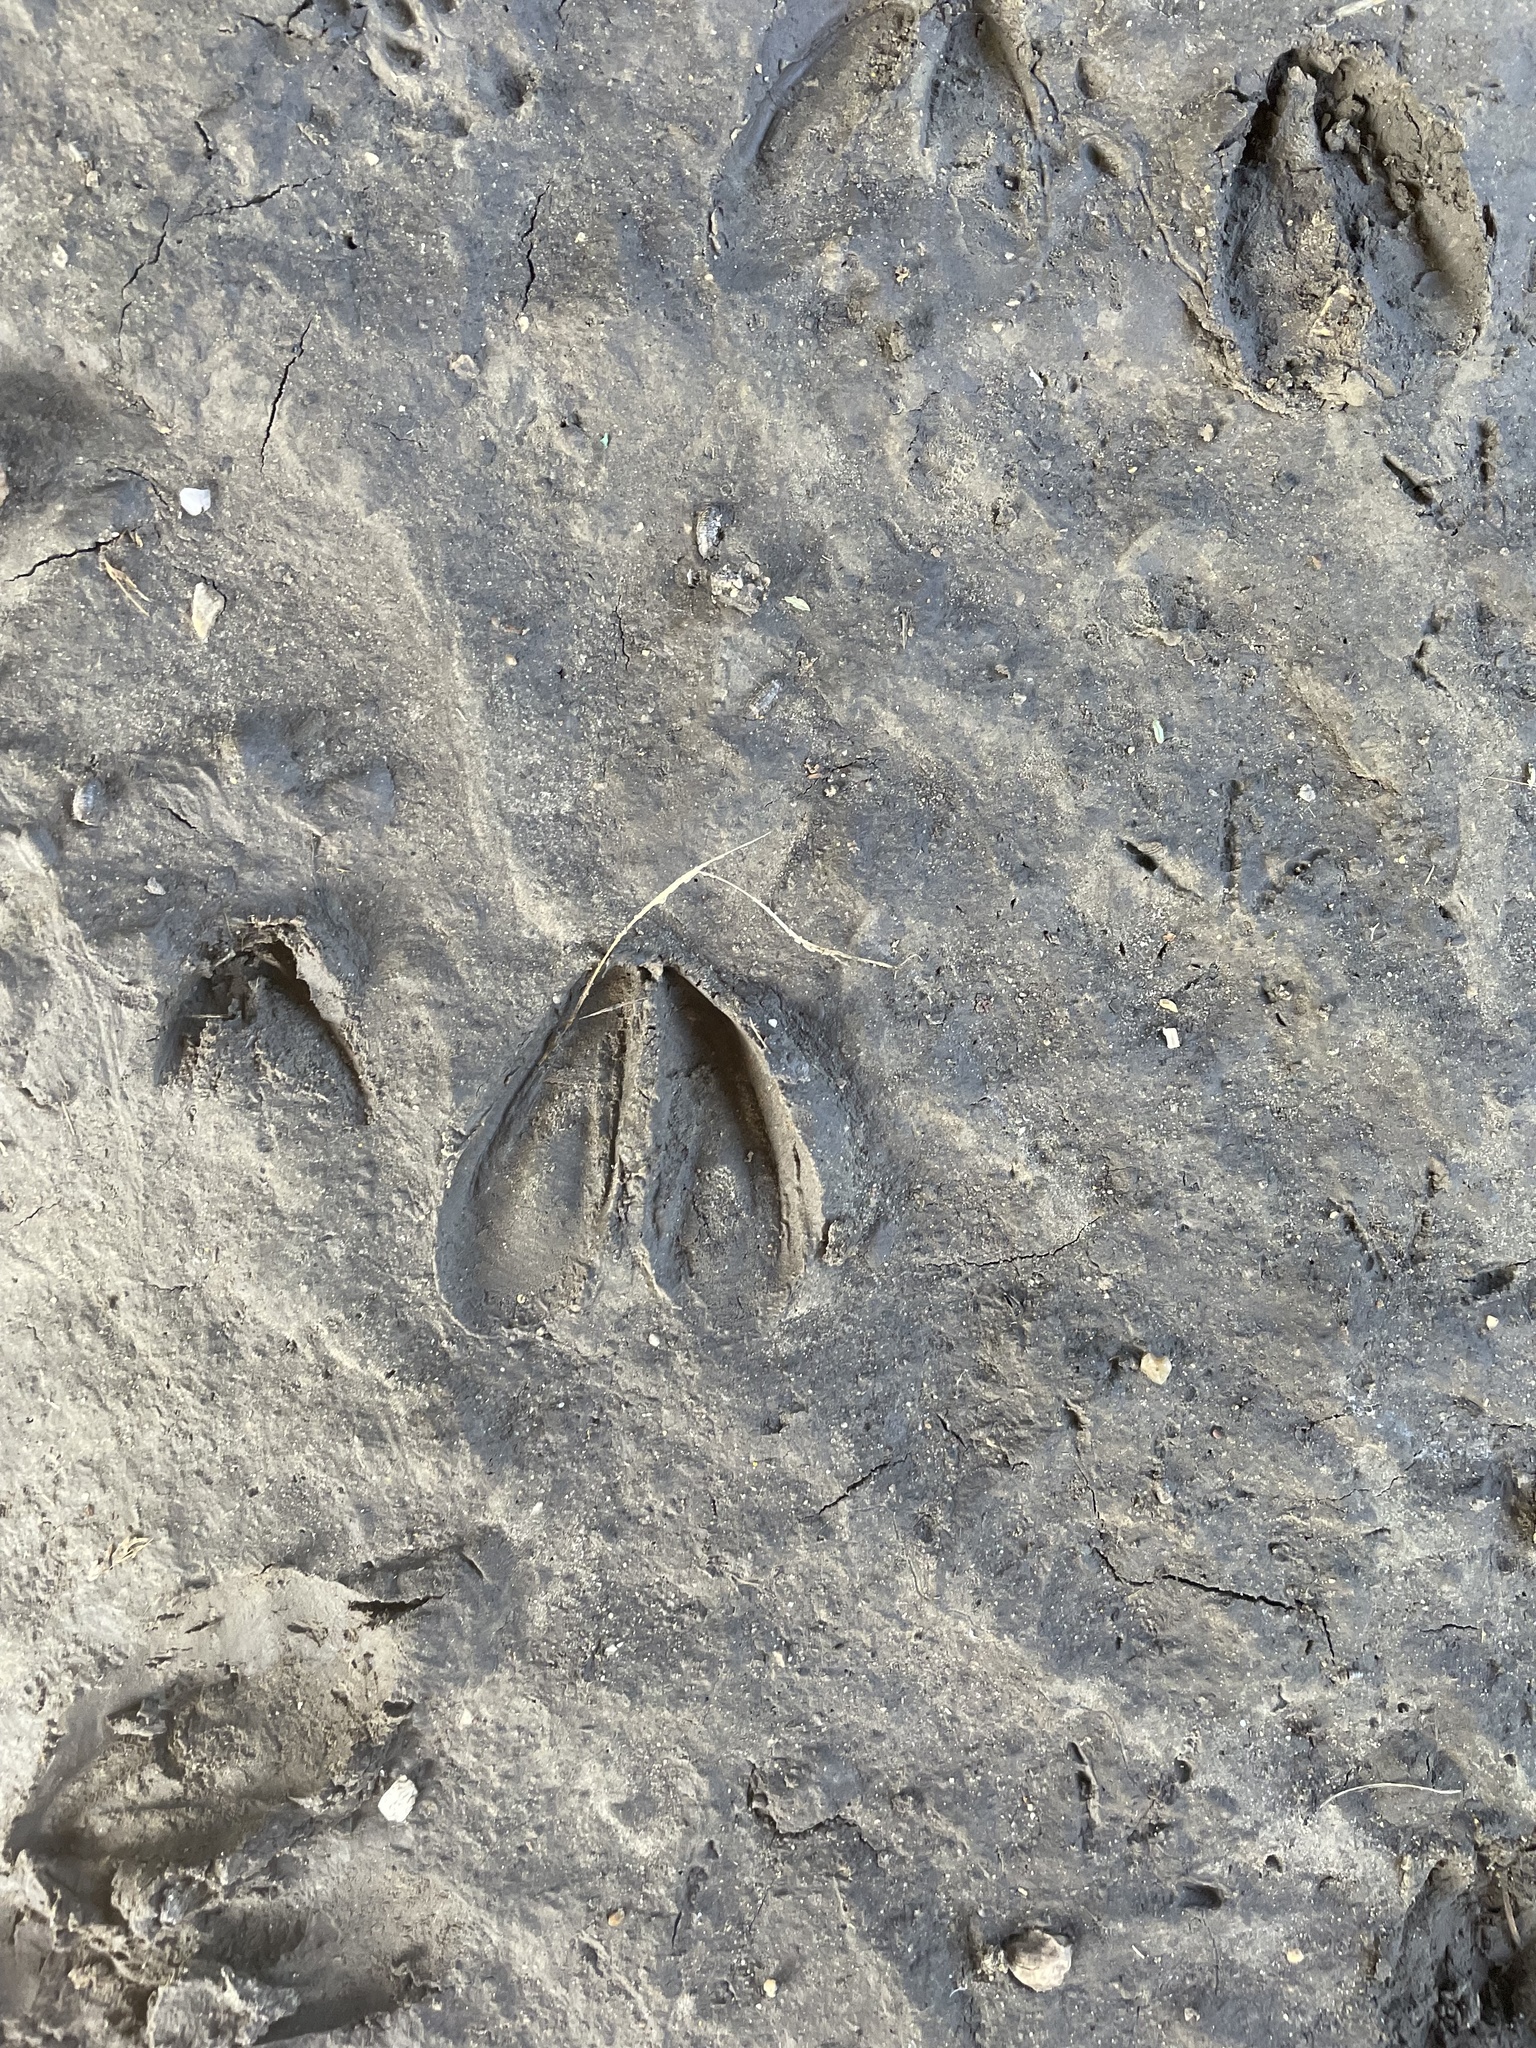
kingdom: Animalia
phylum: Chordata
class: Mammalia
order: Artiodactyla
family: Cervidae
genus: Odocoileus
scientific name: Odocoileus virginianus
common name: White-tailed deer
